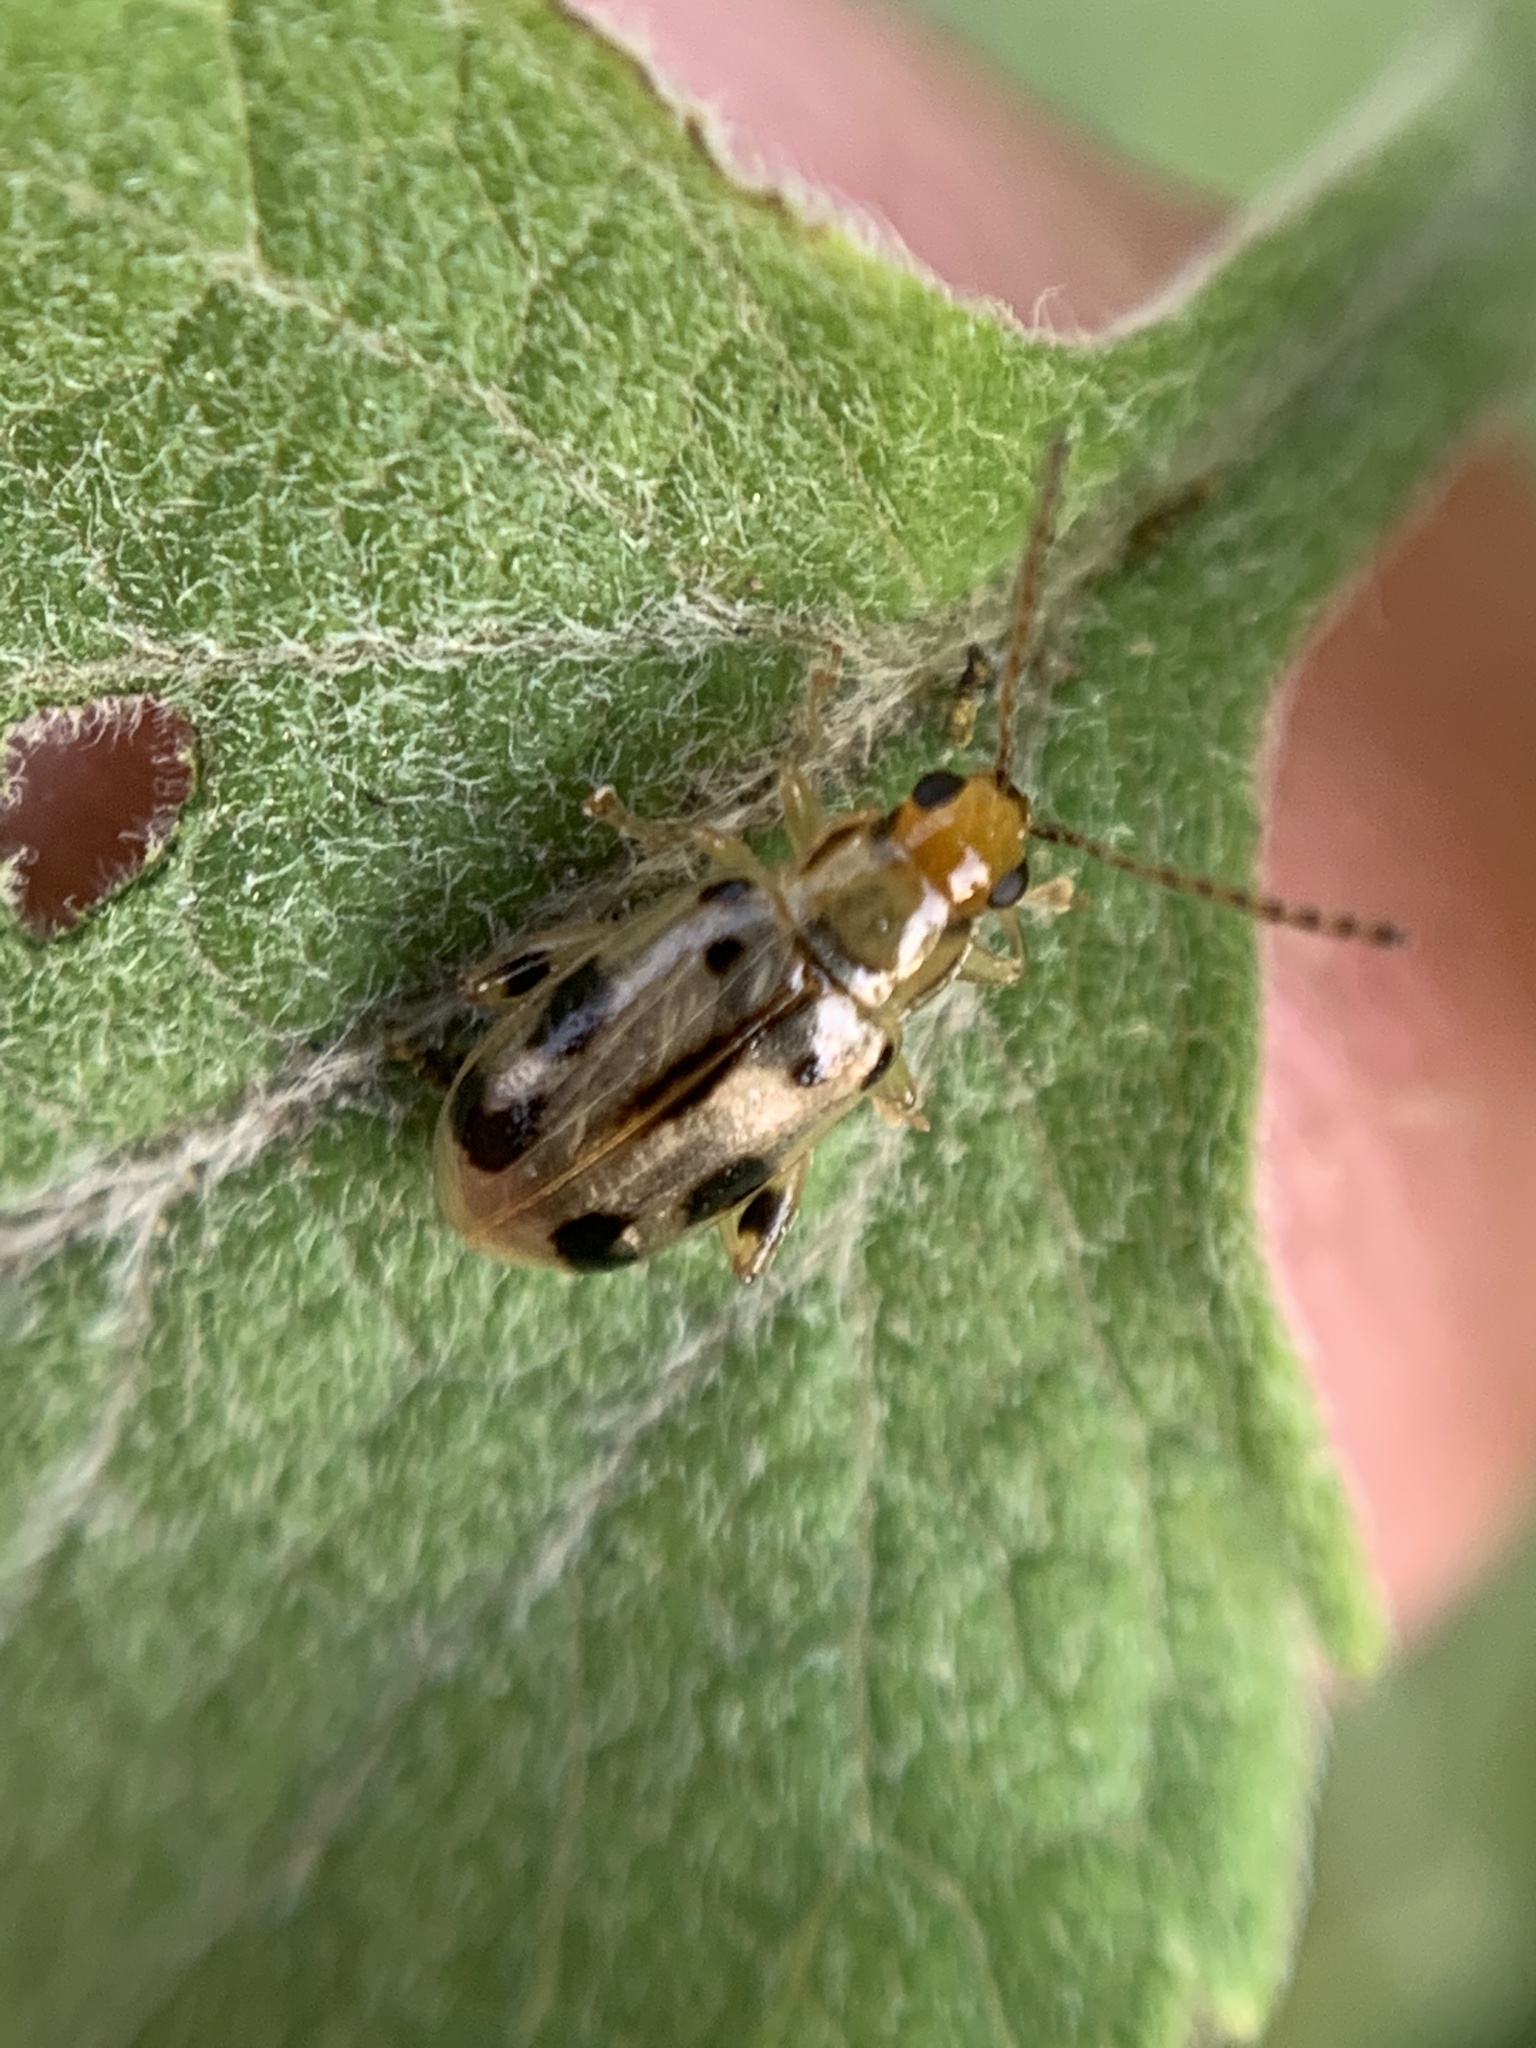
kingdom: Animalia
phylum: Arthropoda
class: Insecta
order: Coleoptera
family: Chrysomelidae
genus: Systena
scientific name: Systena
